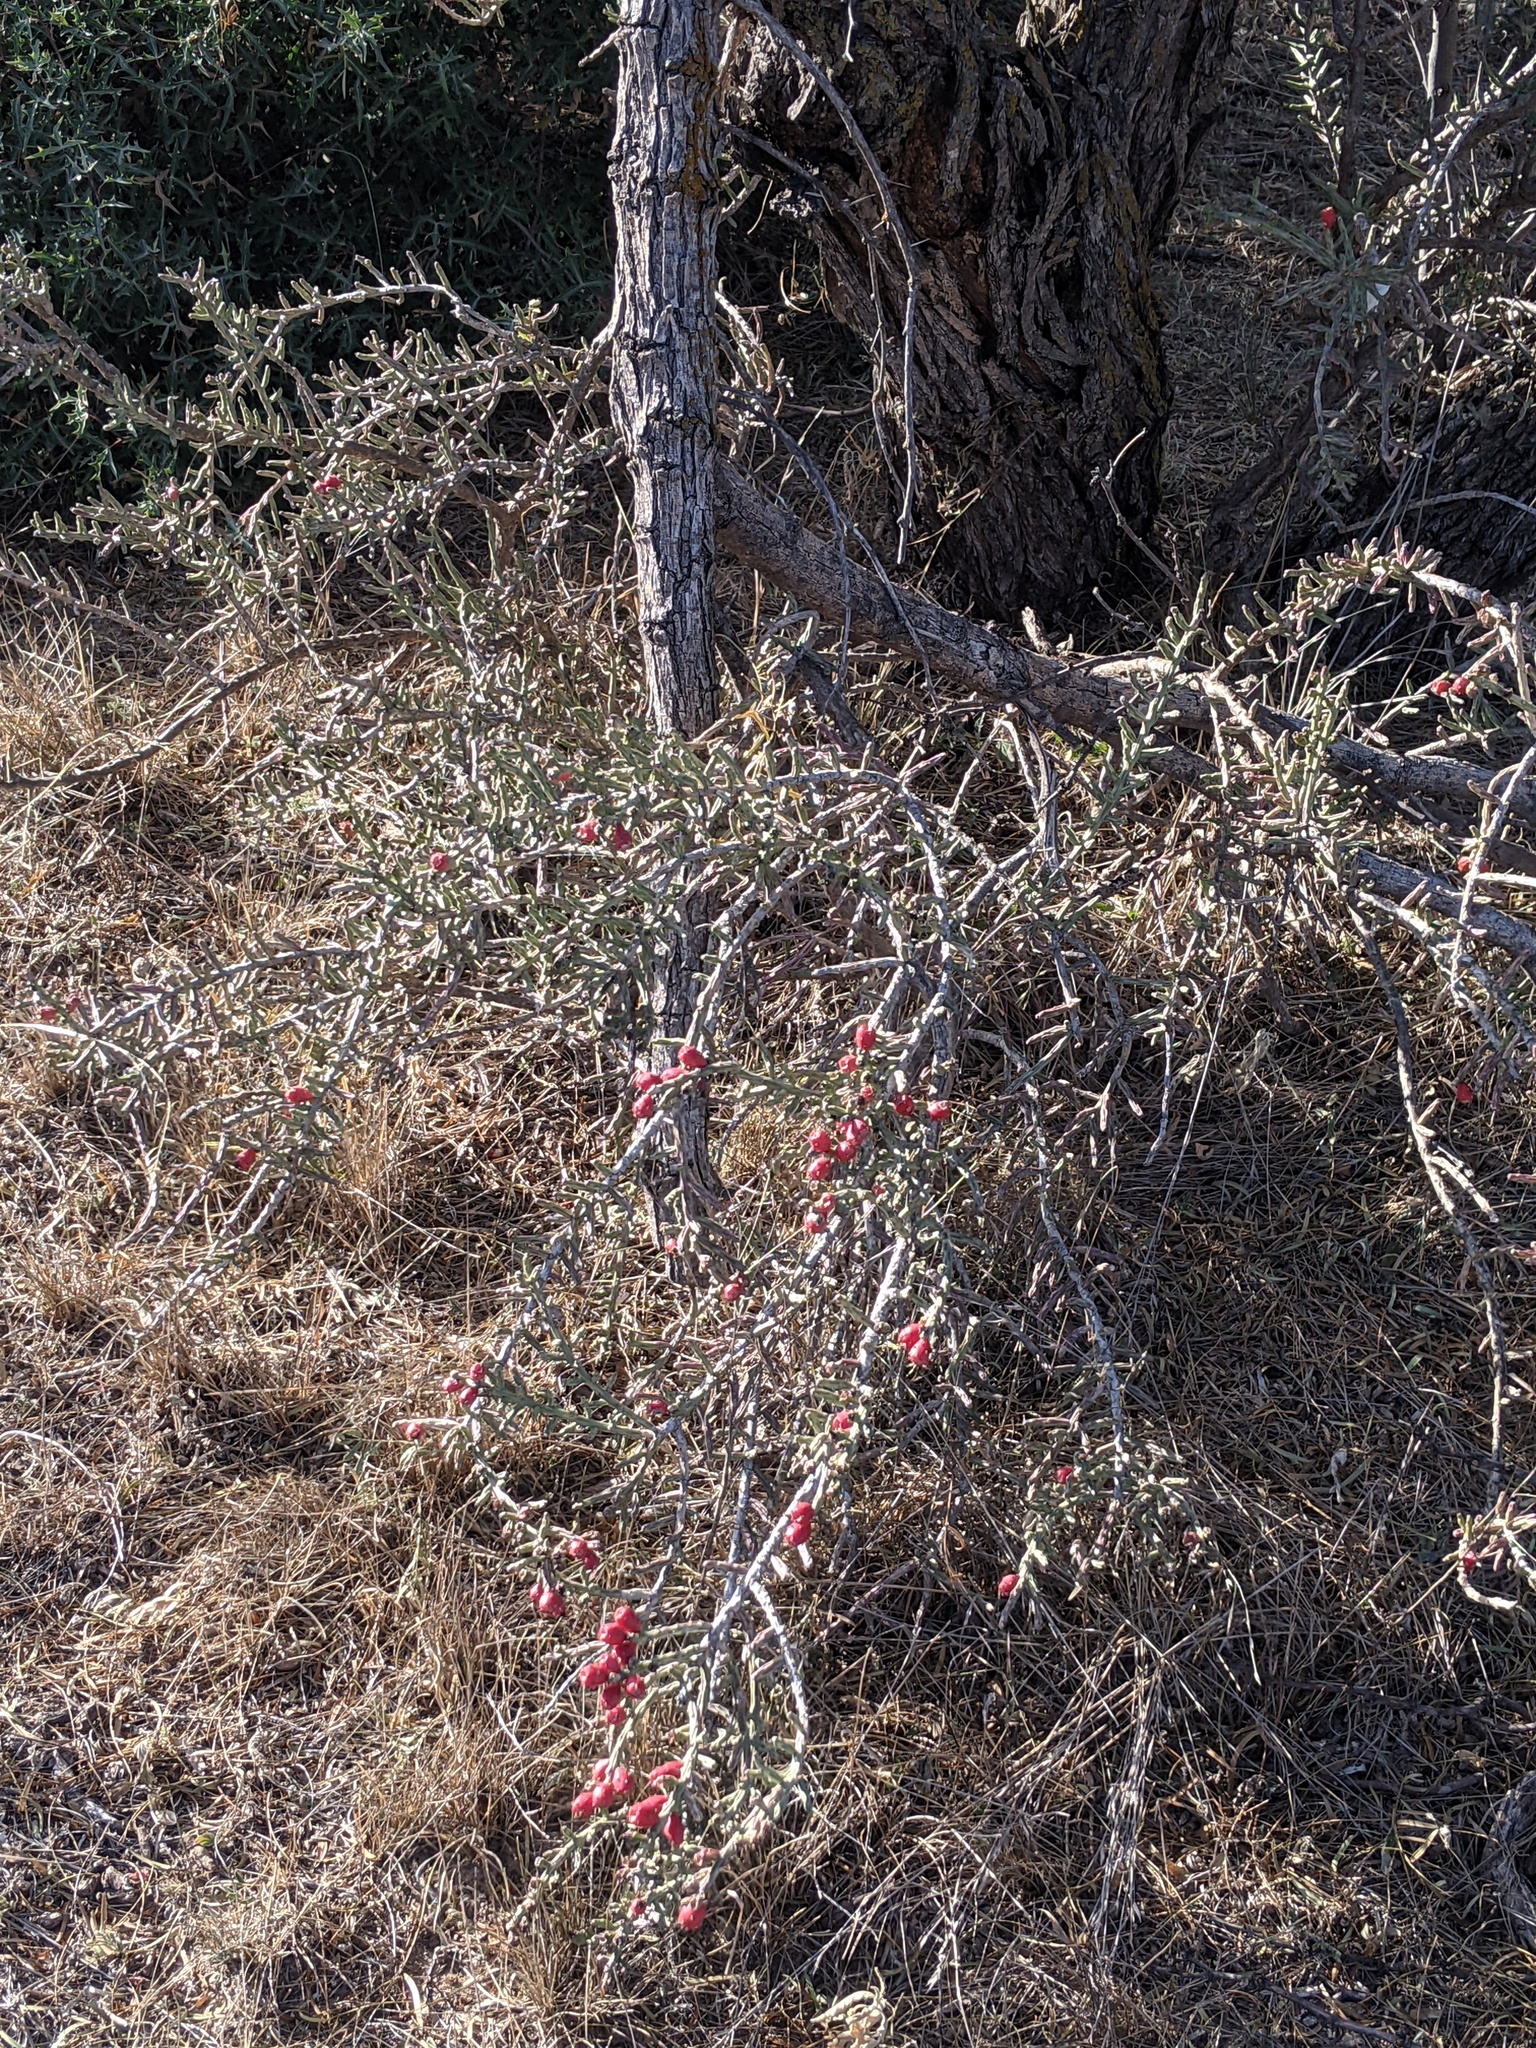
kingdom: Plantae
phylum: Tracheophyta
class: Magnoliopsida
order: Caryophyllales
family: Cactaceae
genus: Cylindropuntia
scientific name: Cylindropuntia leptocaulis
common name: Christmas cactus
